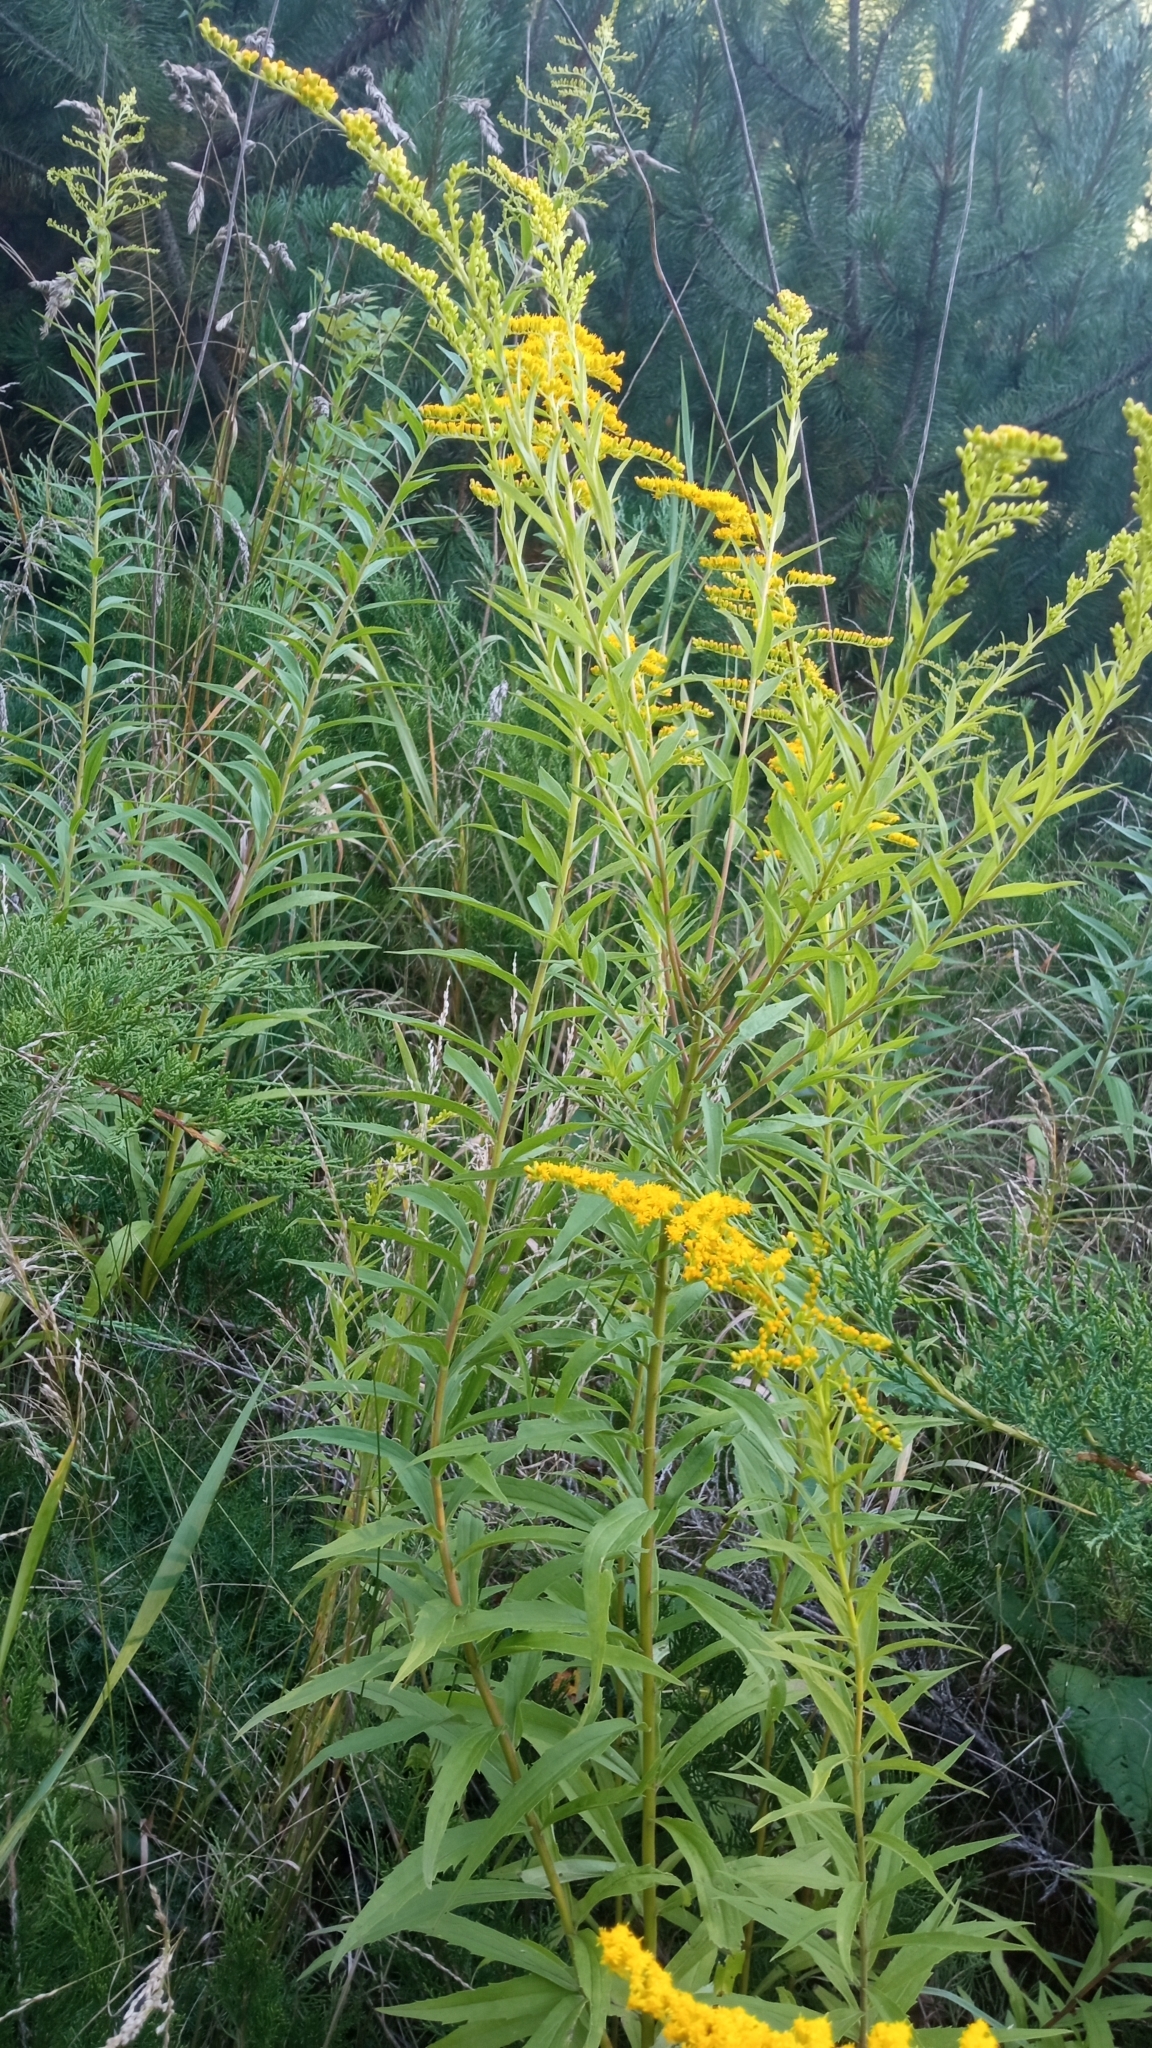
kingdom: Plantae
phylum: Tracheophyta
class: Magnoliopsida
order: Asterales
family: Asteraceae
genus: Solidago
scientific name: Solidago canadensis
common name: Canada goldenrod
